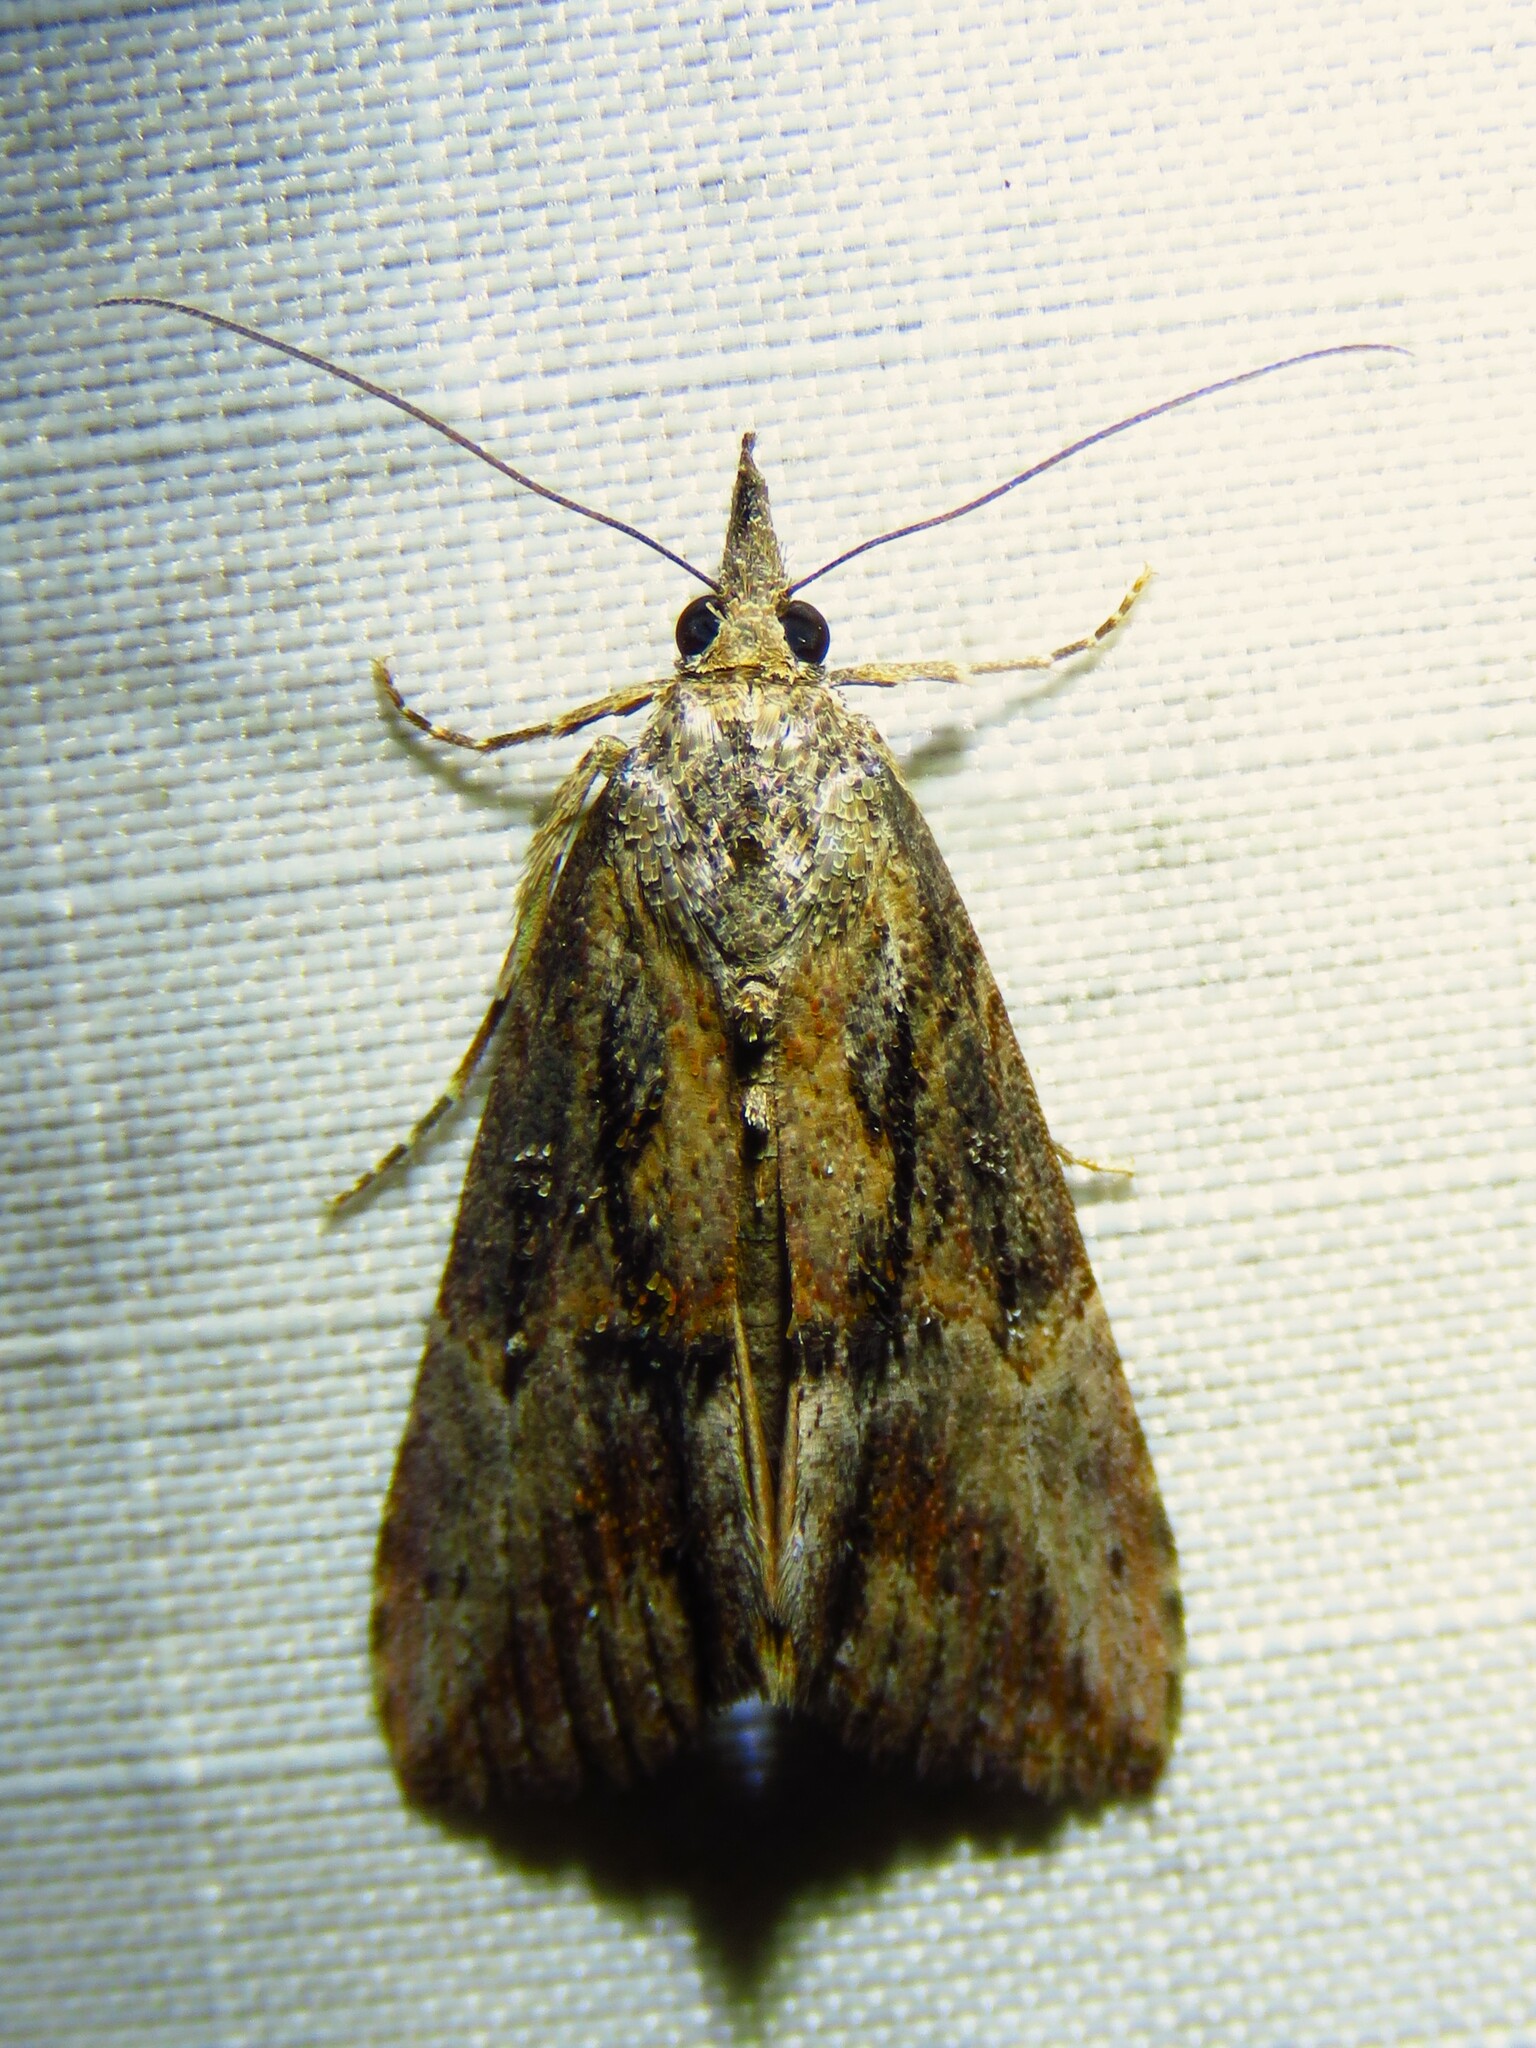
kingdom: Animalia
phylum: Arthropoda
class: Insecta
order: Lepidoptera
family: Erebidae
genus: Hypena
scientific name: Hypena scabra
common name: Green cloverworm
